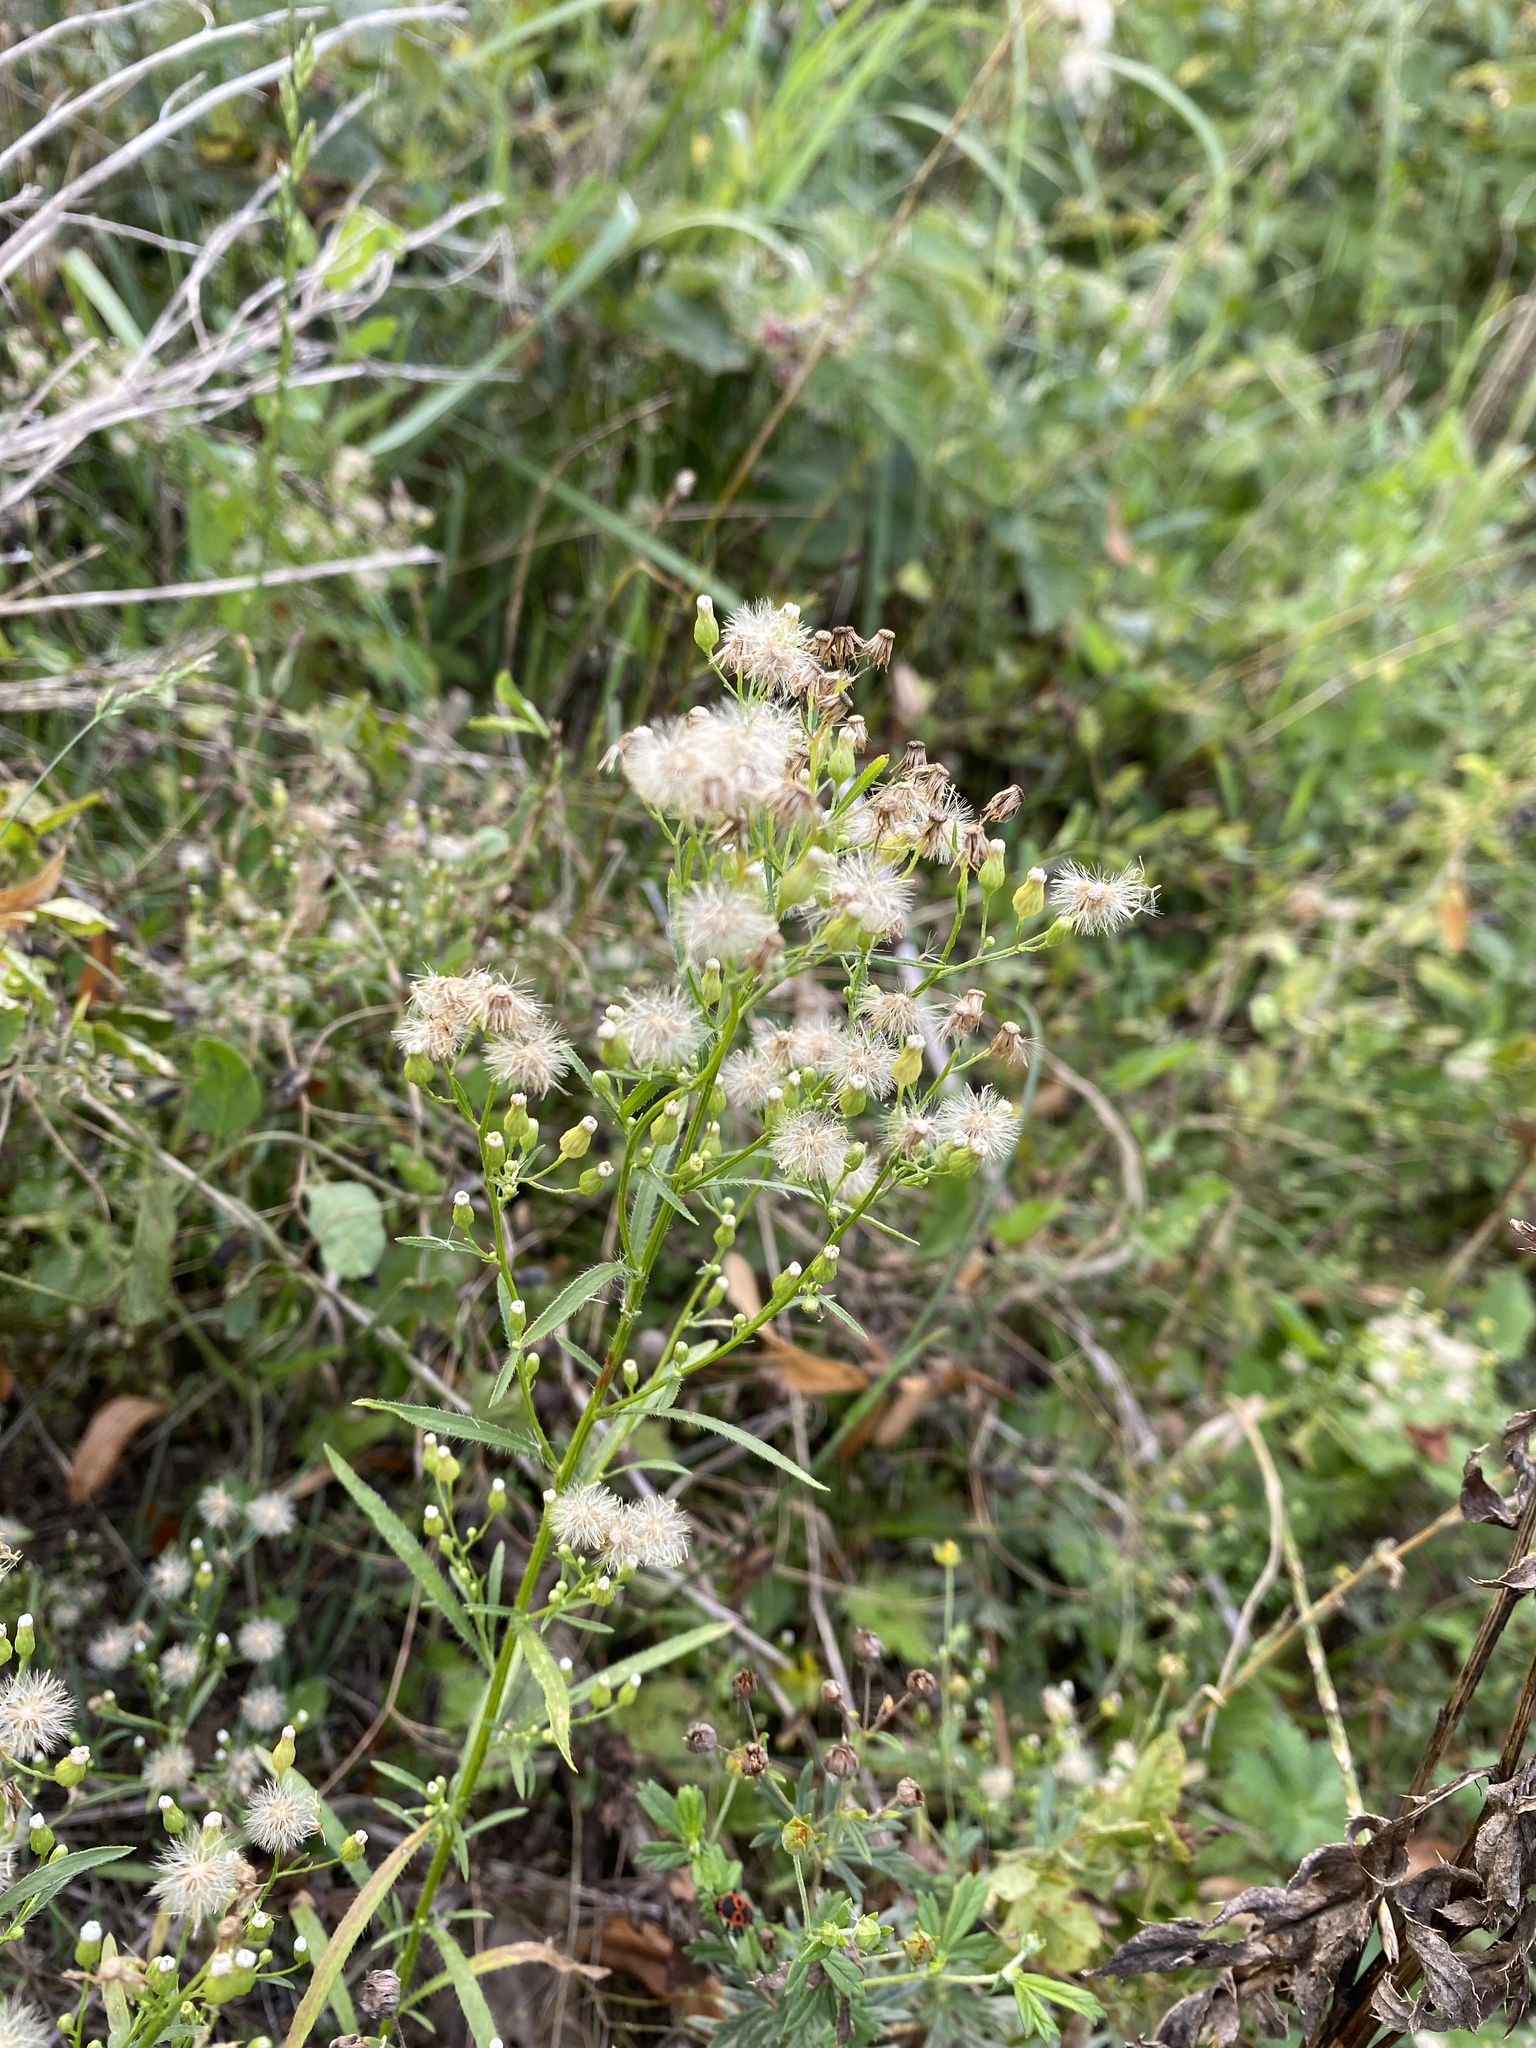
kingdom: Plantae
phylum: Tracheophyta
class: Magnoliopsida
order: Asterales
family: Asteraceae
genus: Erigeron
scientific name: Erigeron canadensis
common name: Canadian fleabane
